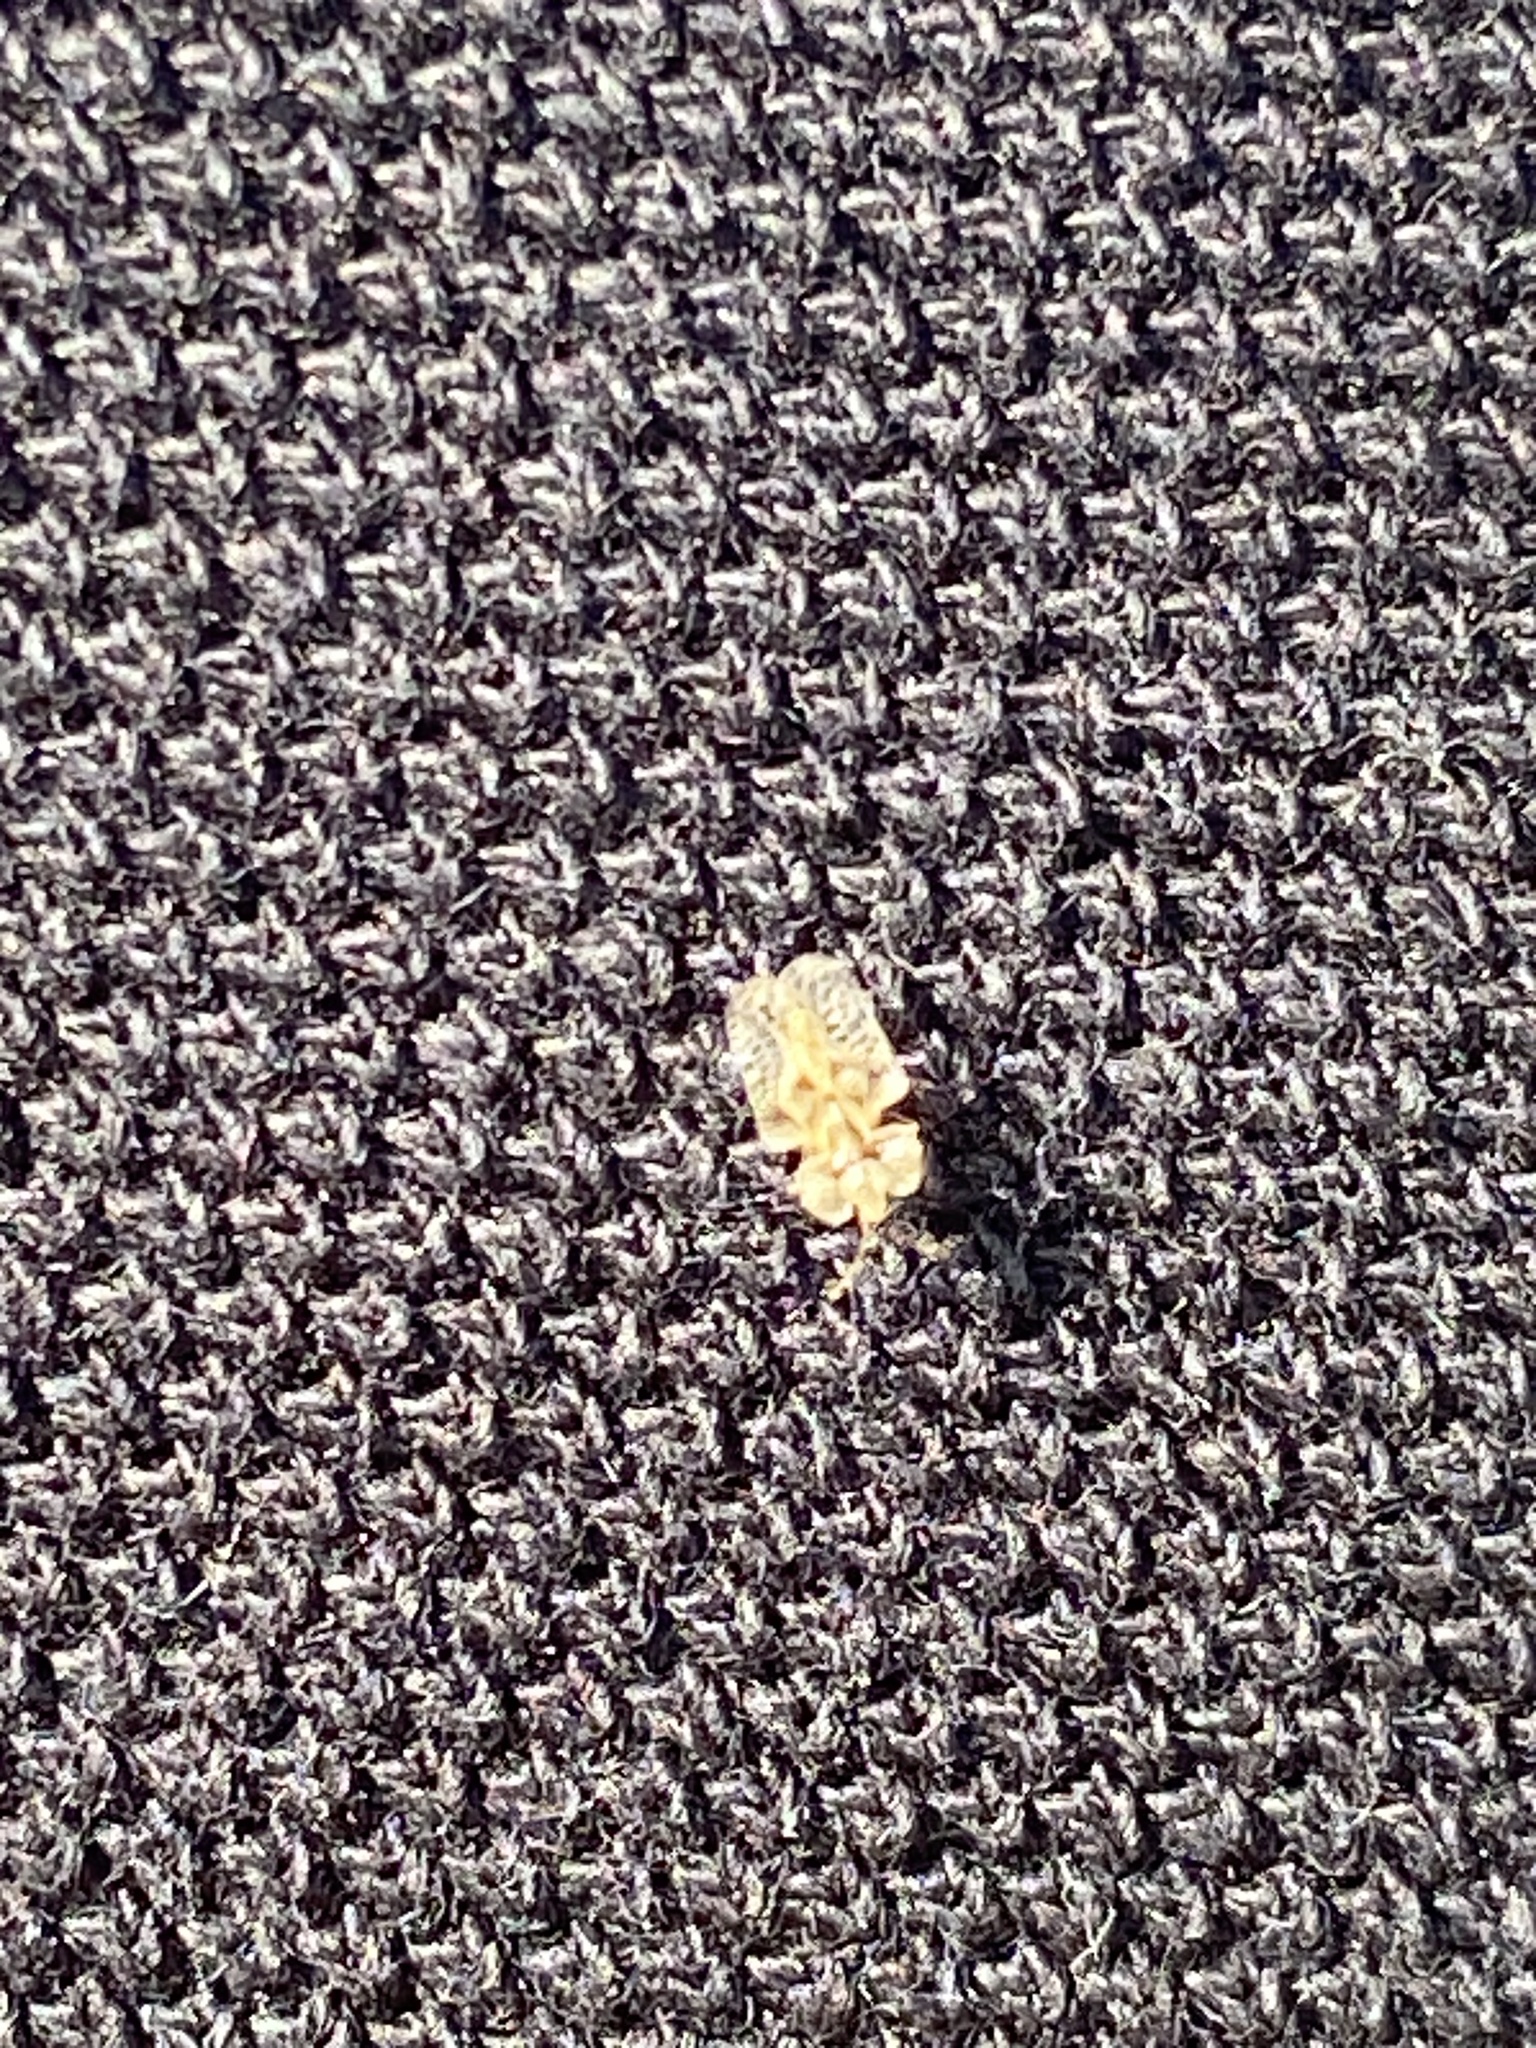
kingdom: Animalia
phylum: Arthropoda
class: Insecta
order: Hemiptera
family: Tingidae
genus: Corythucha
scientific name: Corythucha arcuata
